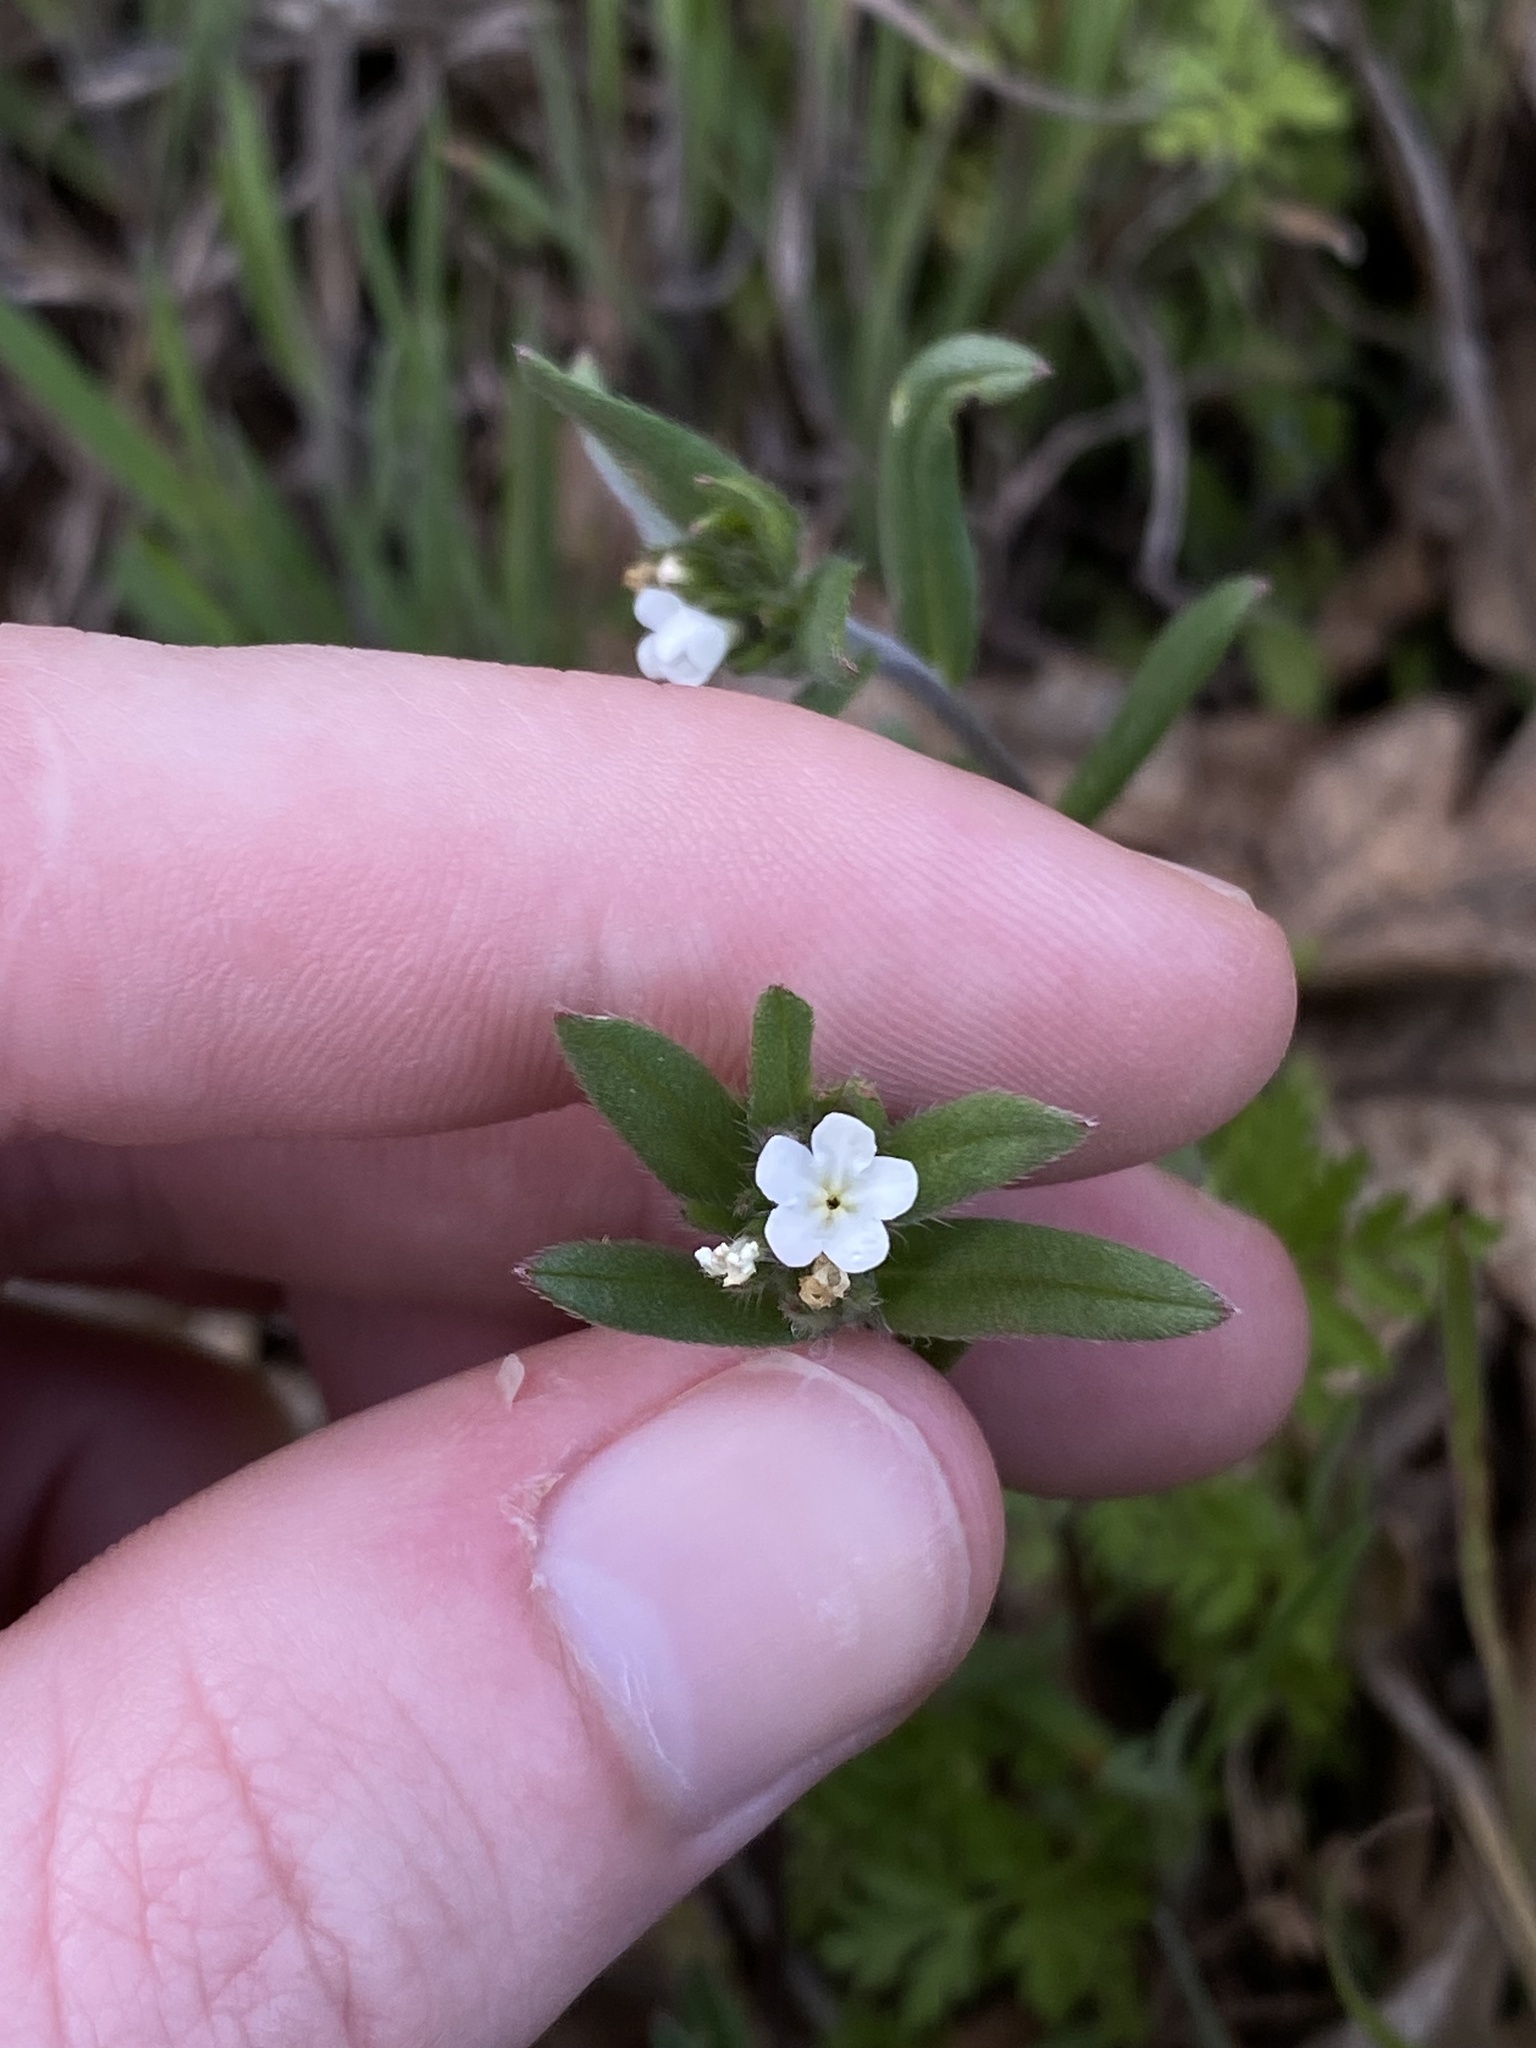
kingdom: Plantae
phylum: Tracheophyta
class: Magnoliopsida
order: Boraginales
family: Boraginaceae
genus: Buglossoides
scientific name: Buglossoides arvensis
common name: Corn gromwell
